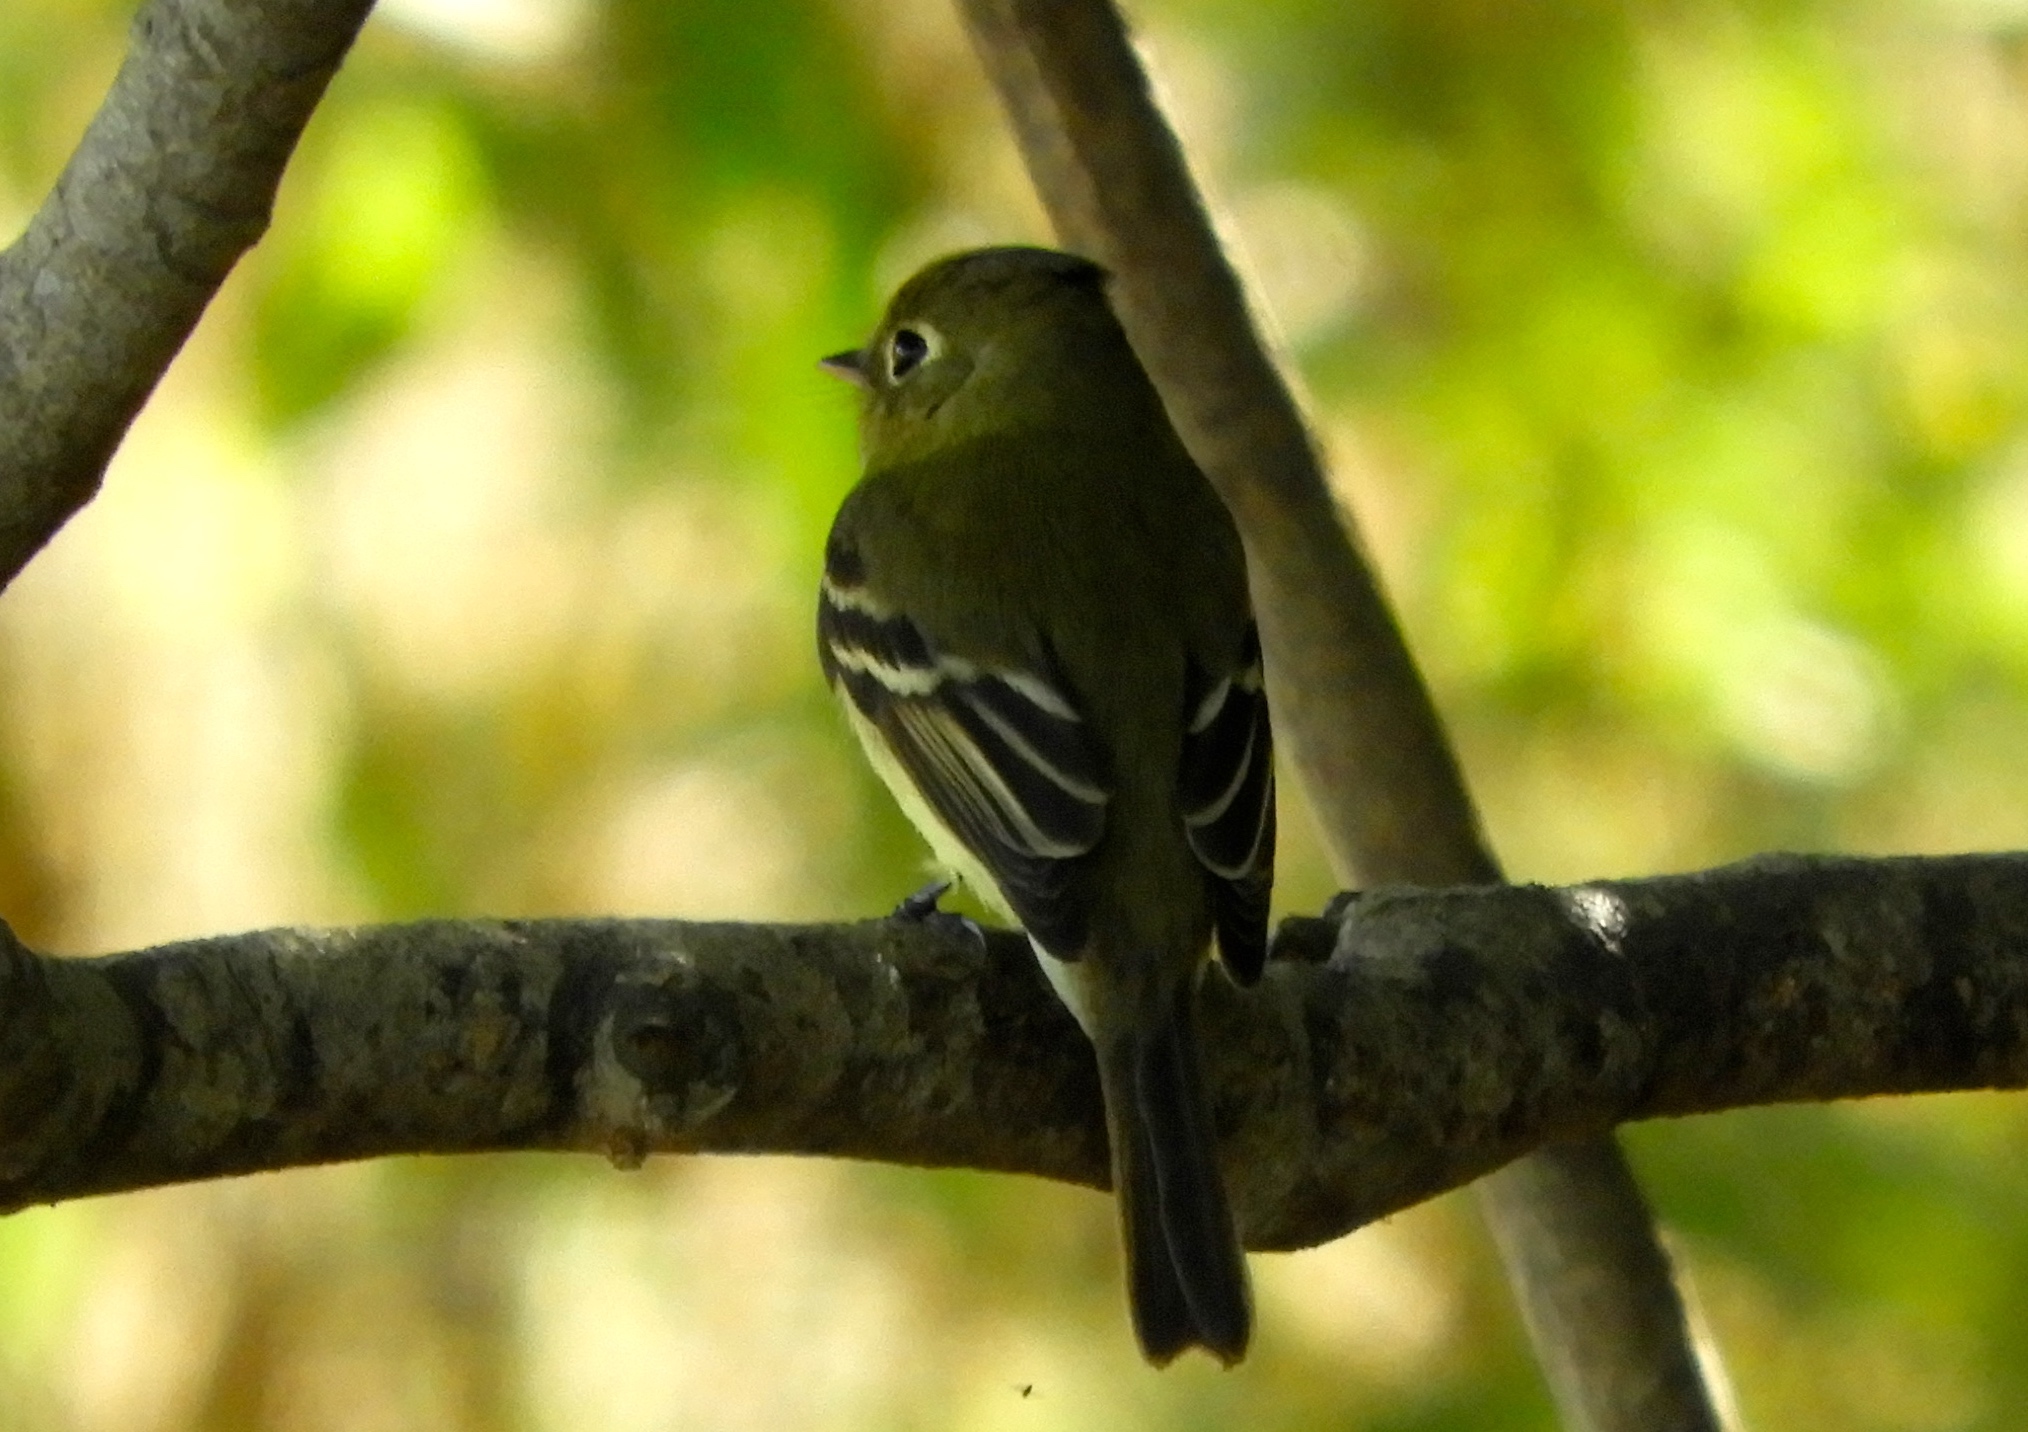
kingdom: Animalia
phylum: Chordata
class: Aves
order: Passeriformes
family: Tyrannidae
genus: Empidonax
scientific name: Empidonax
